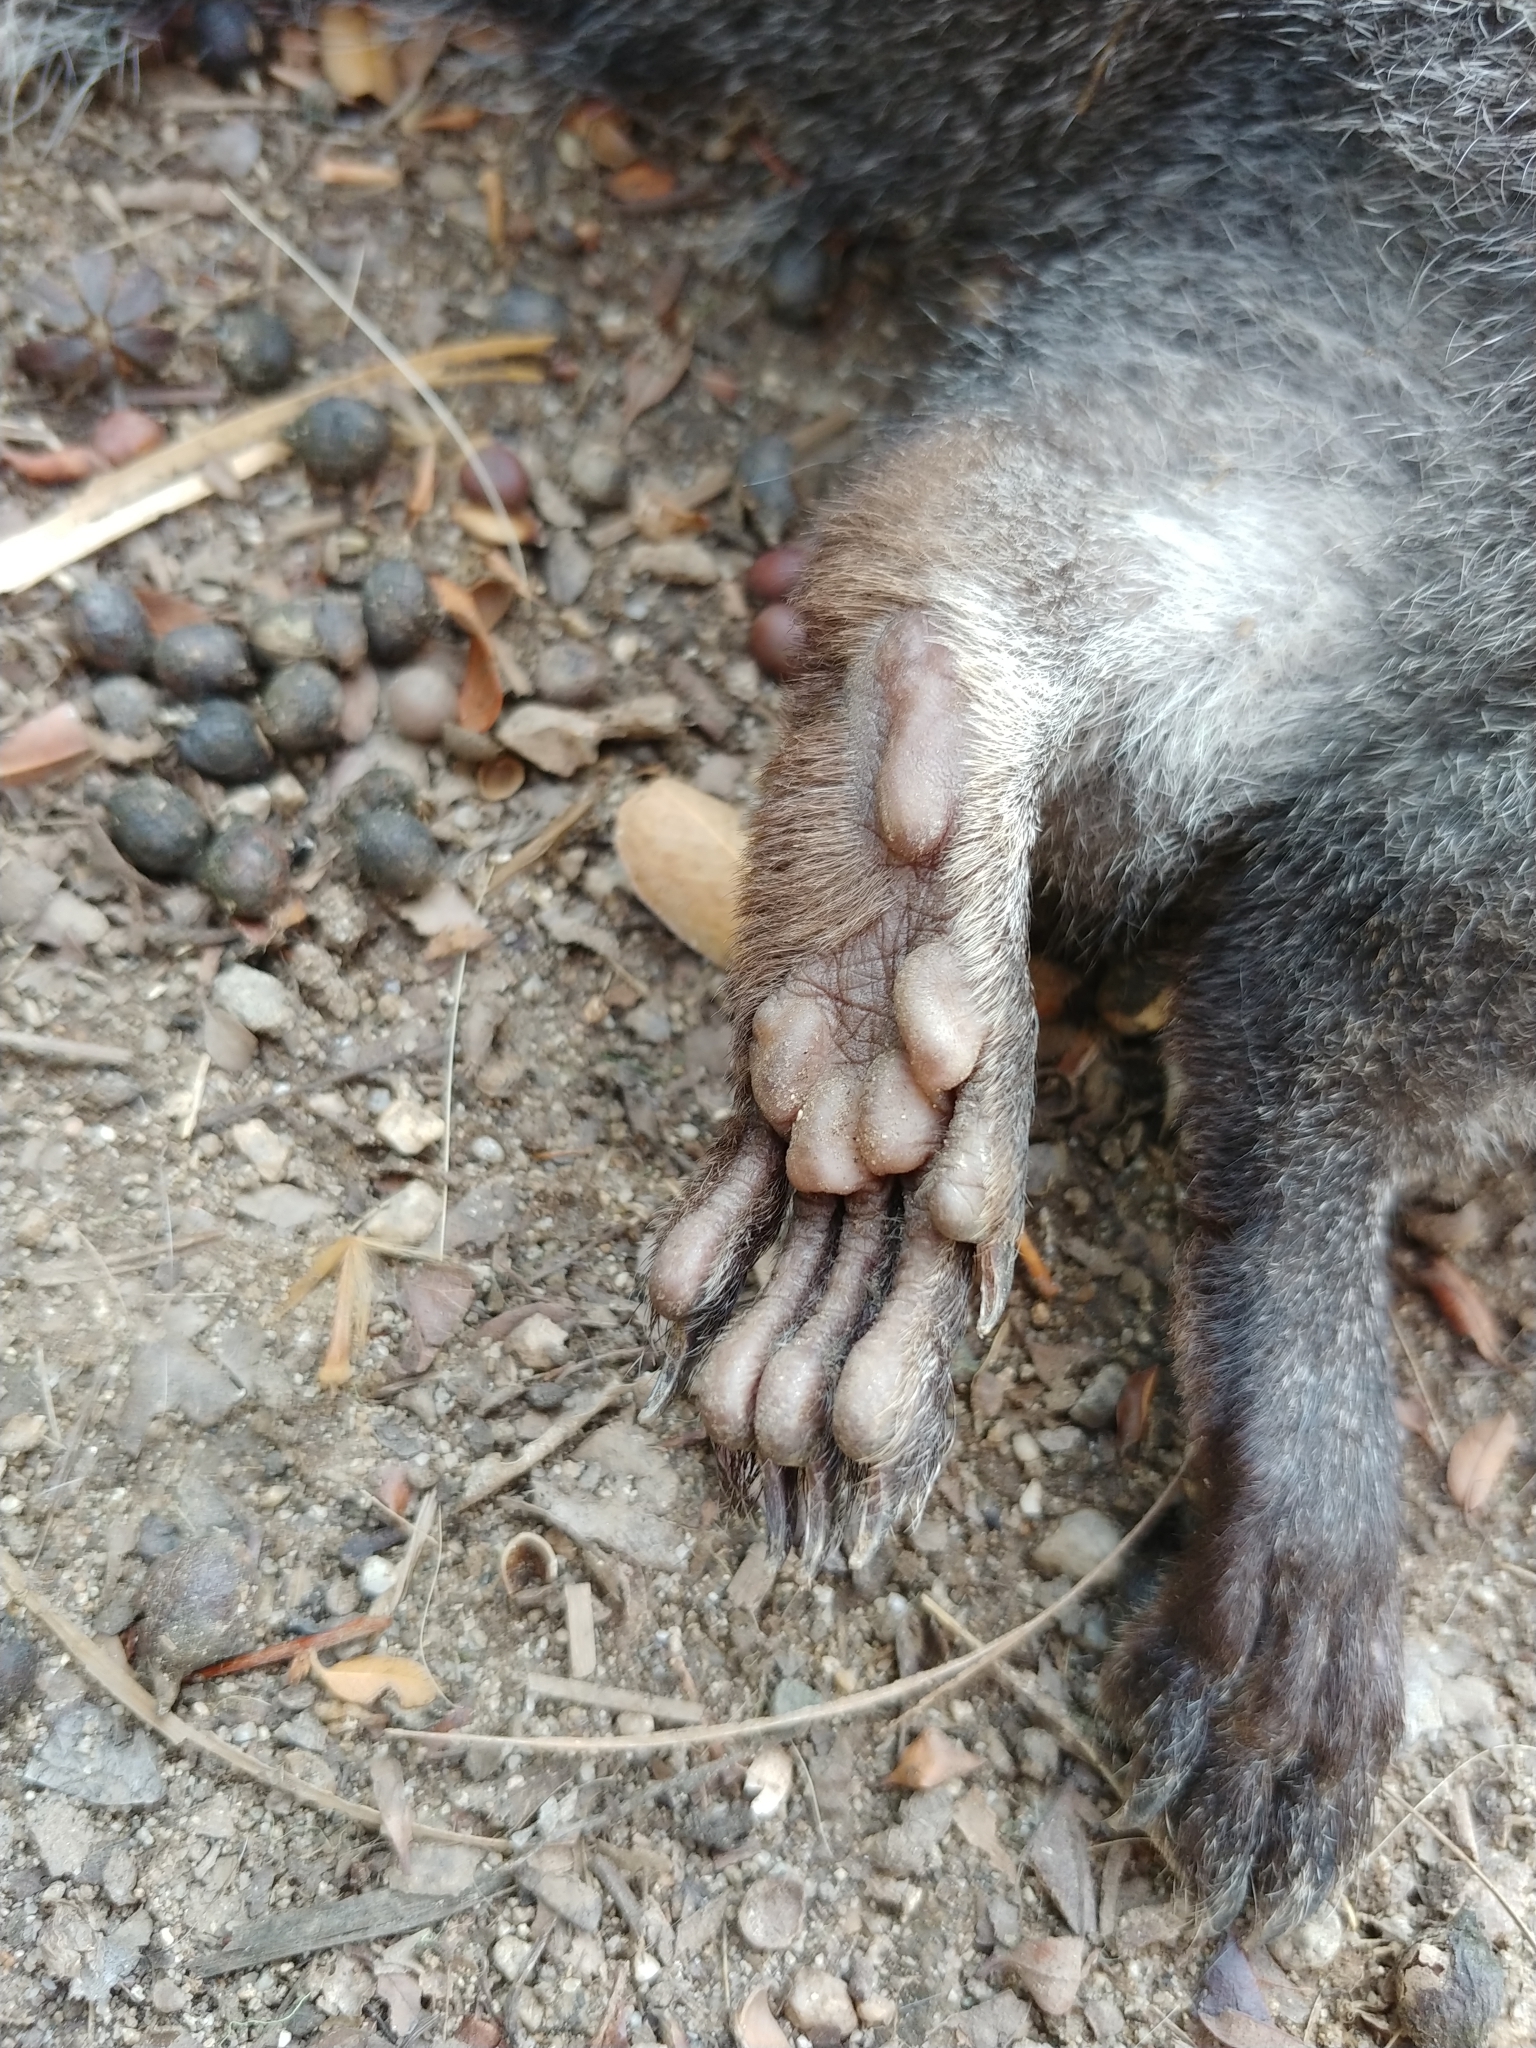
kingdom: Animalia
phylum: Chordata
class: Mammalia
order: Rodentia
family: Sciuridae
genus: Sciurus
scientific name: Sciurus griseus
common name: Western gray squirrel
